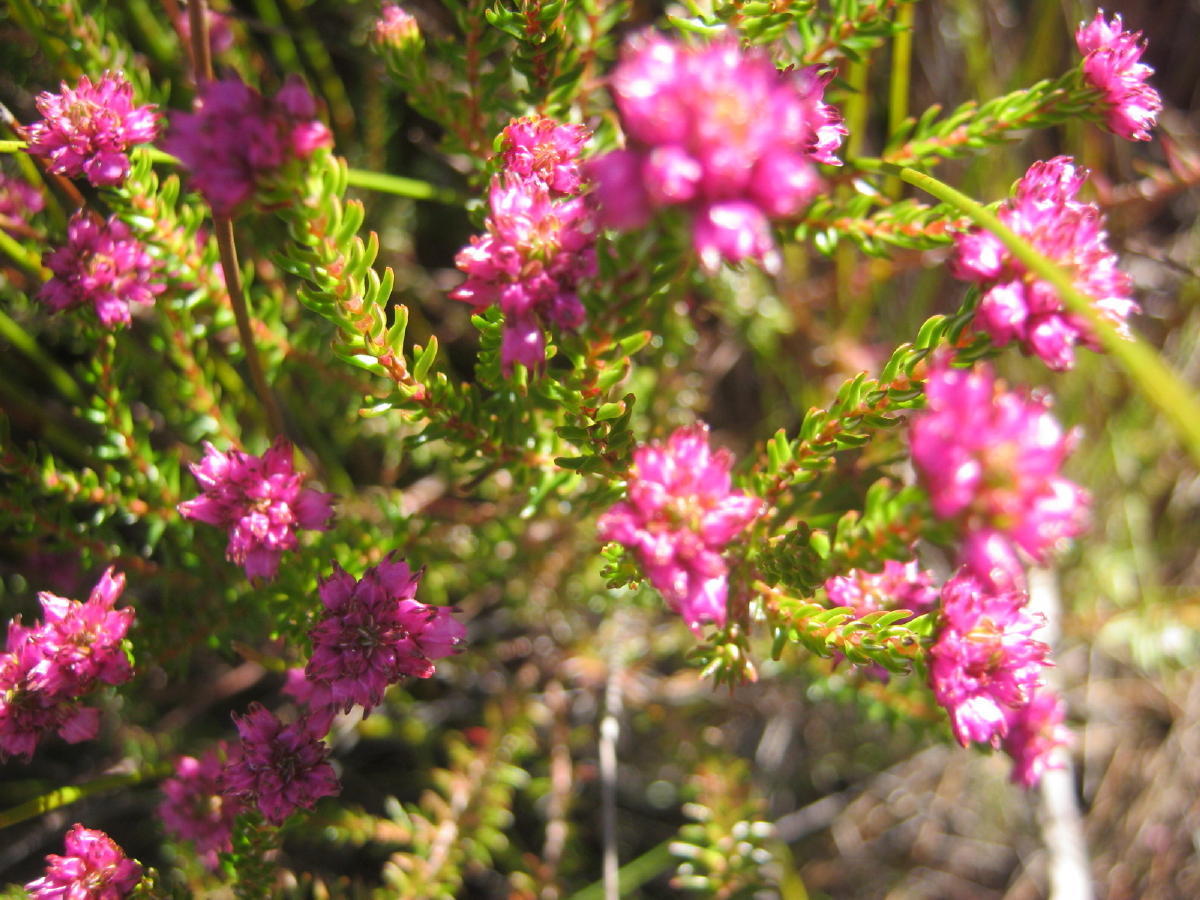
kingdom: Plantae
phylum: Tracheophyta
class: Magnoliopsida
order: Ericales
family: Ericaceae
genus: Erica
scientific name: Erica cubica
